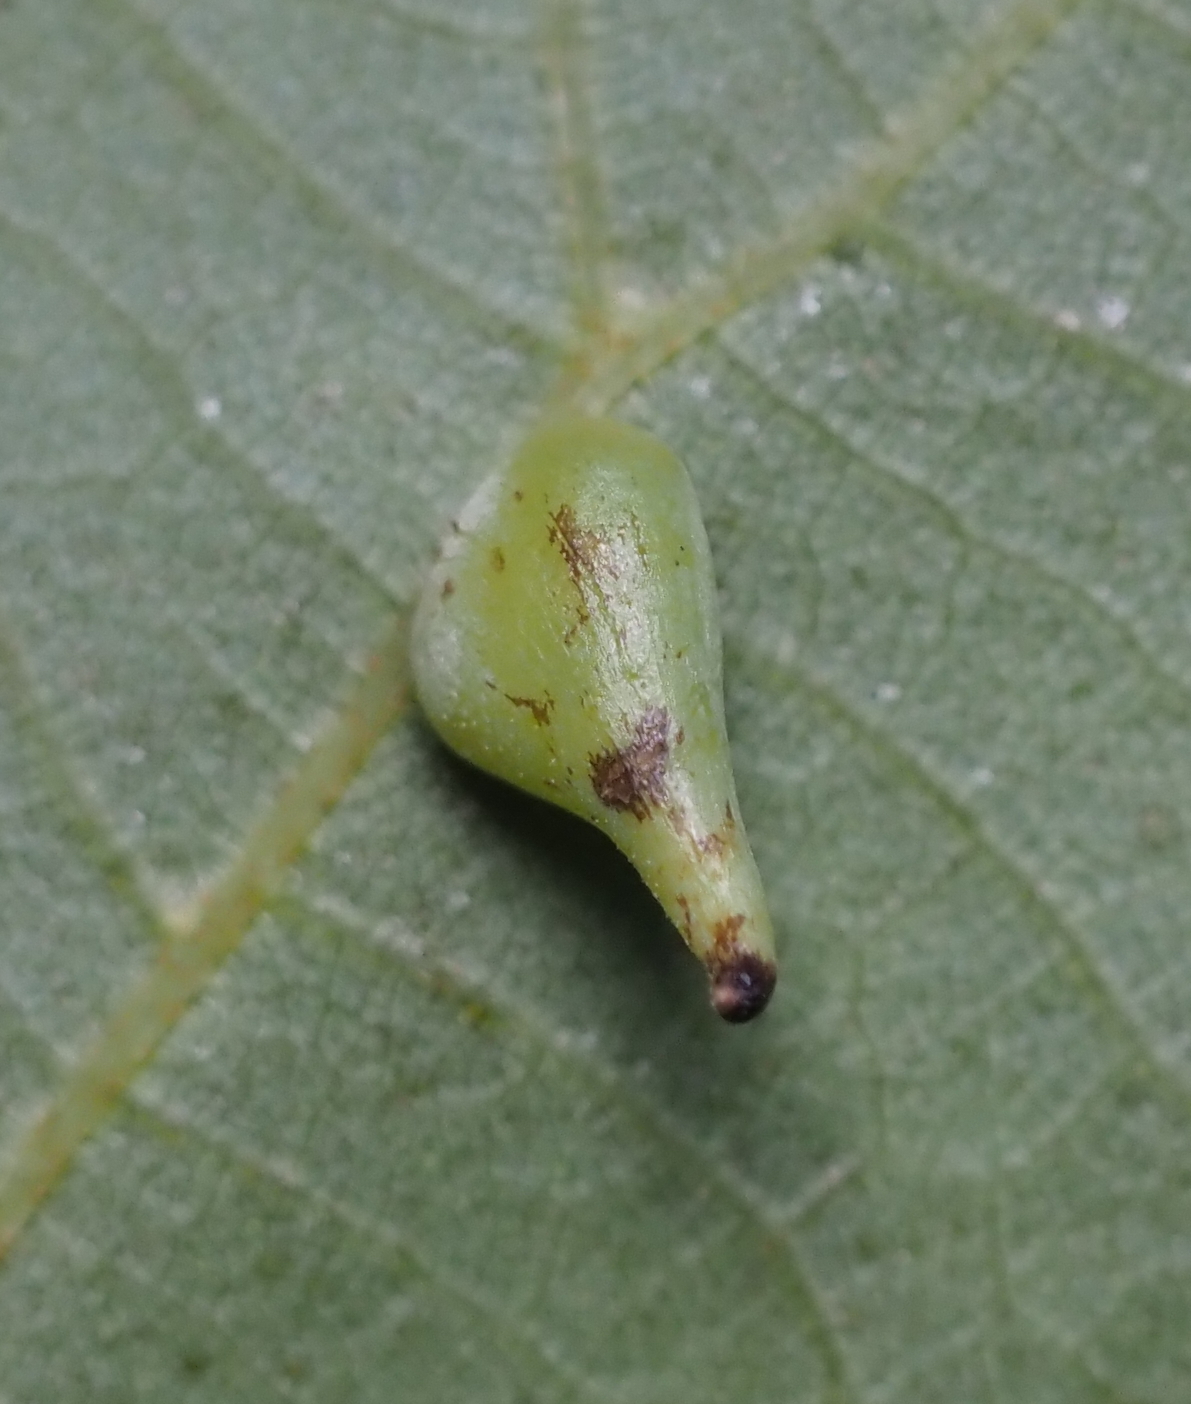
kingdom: Animalia
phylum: Arthropoda
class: Insecta
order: Diptera
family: Cecidomyiidae
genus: Caryomyia
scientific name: Caryomyia caryaecola
